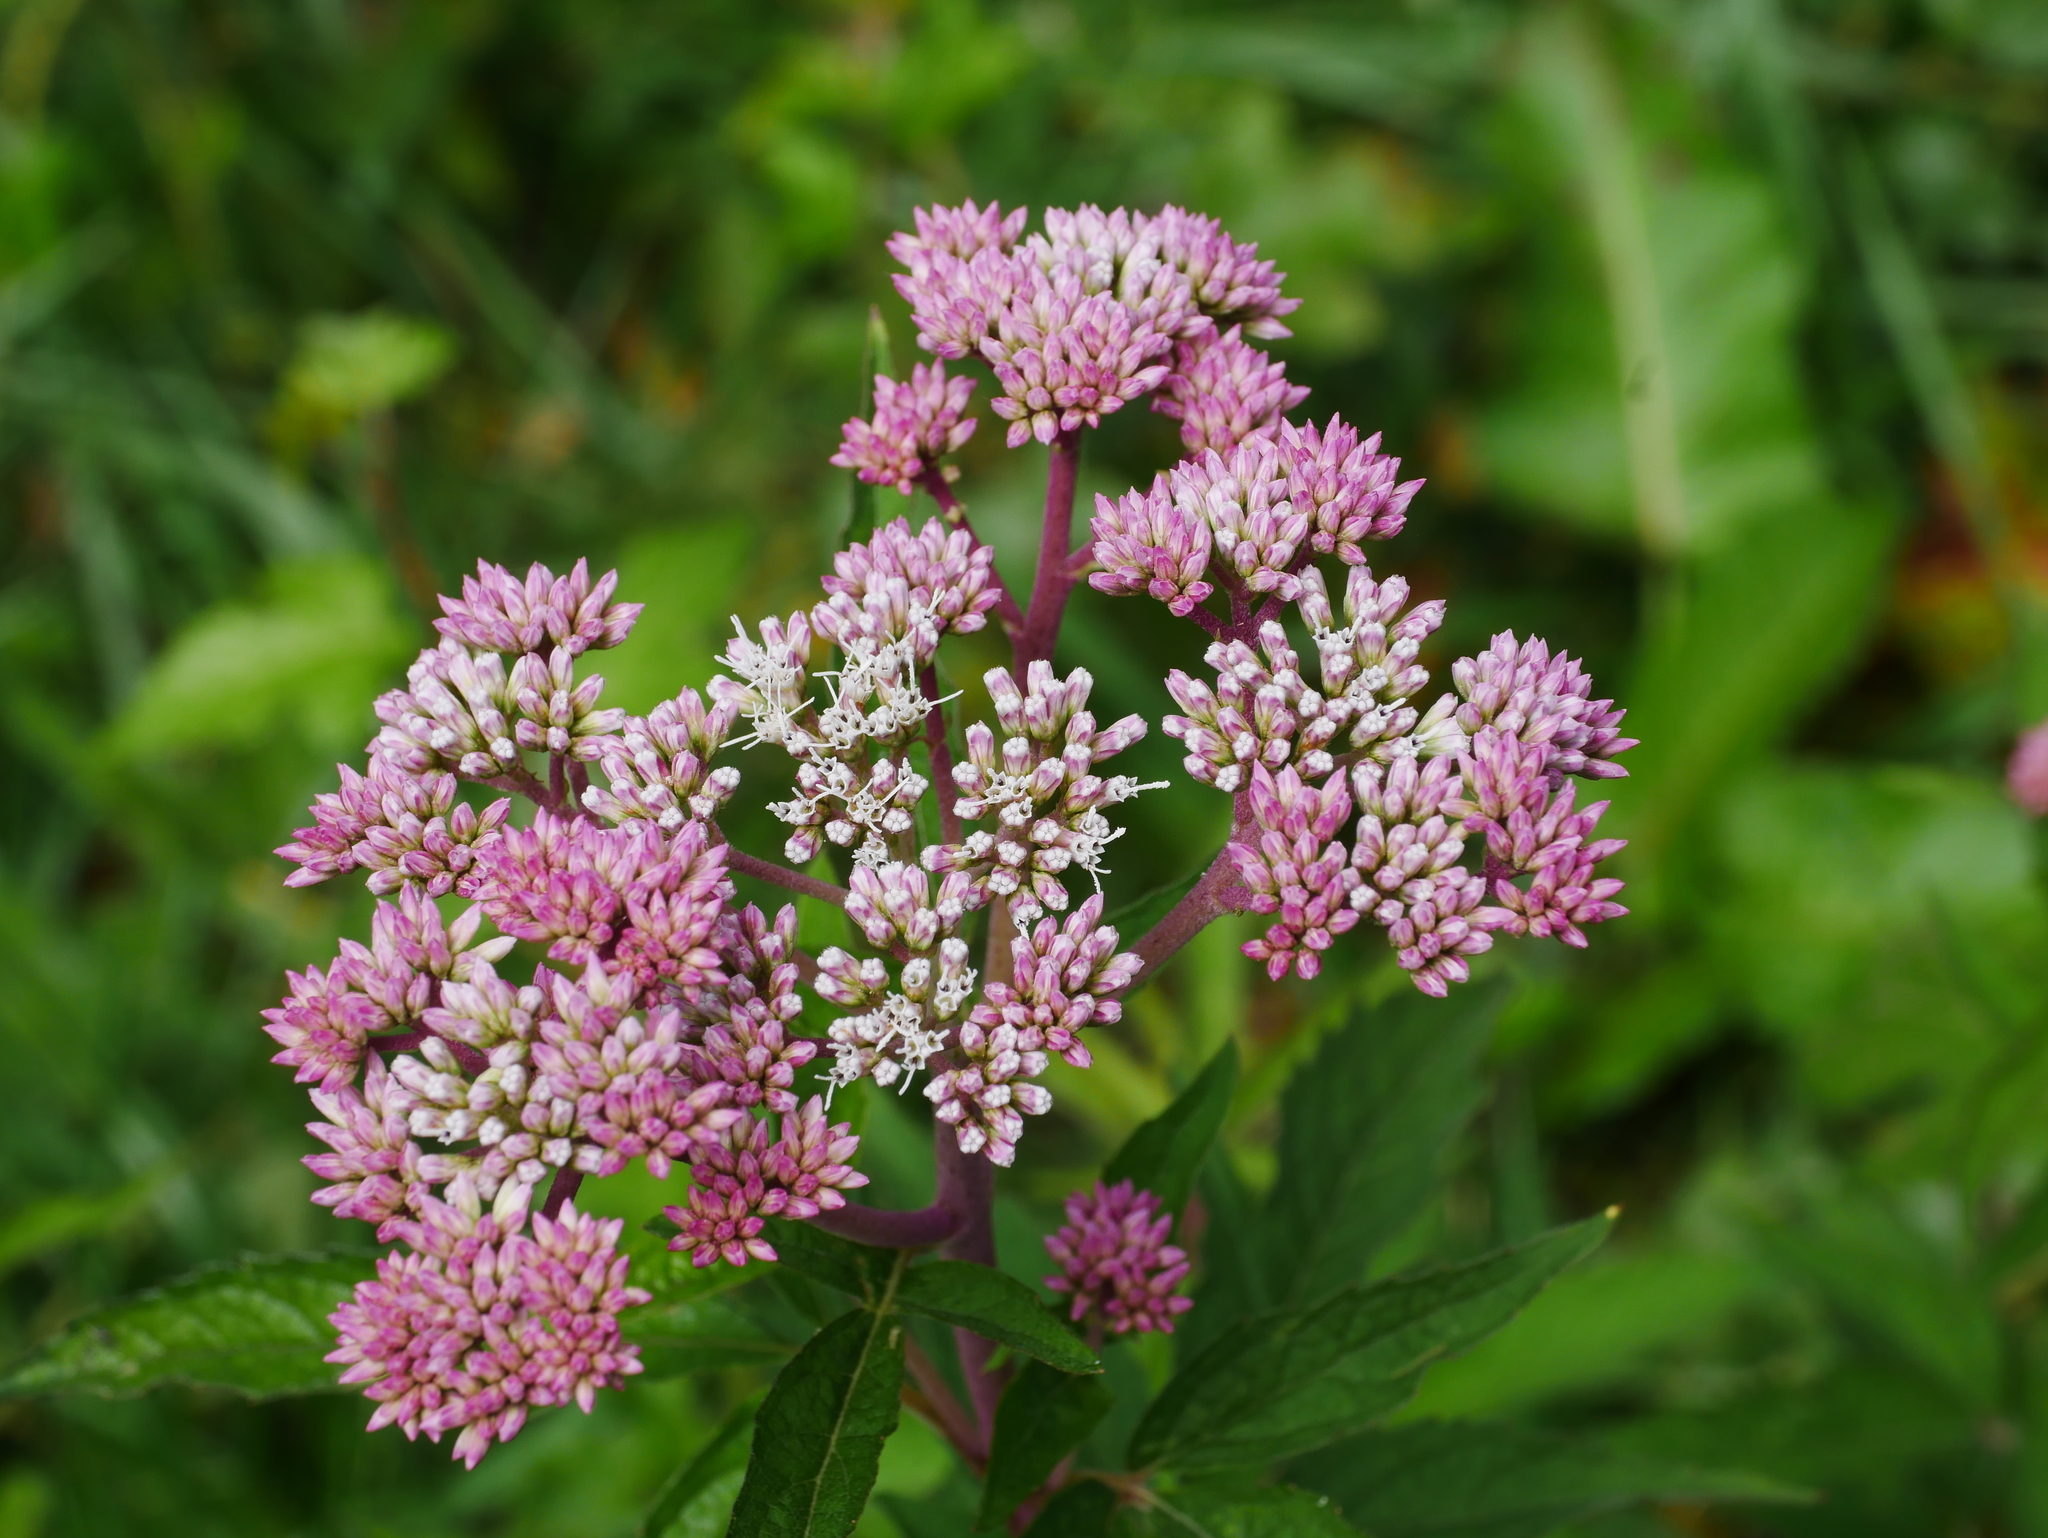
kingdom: Plantae
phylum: Tracheophyta
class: Magnoliopsida
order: Asterales
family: Asteraceae
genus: Eupatorium
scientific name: Eupatorium formosanum
